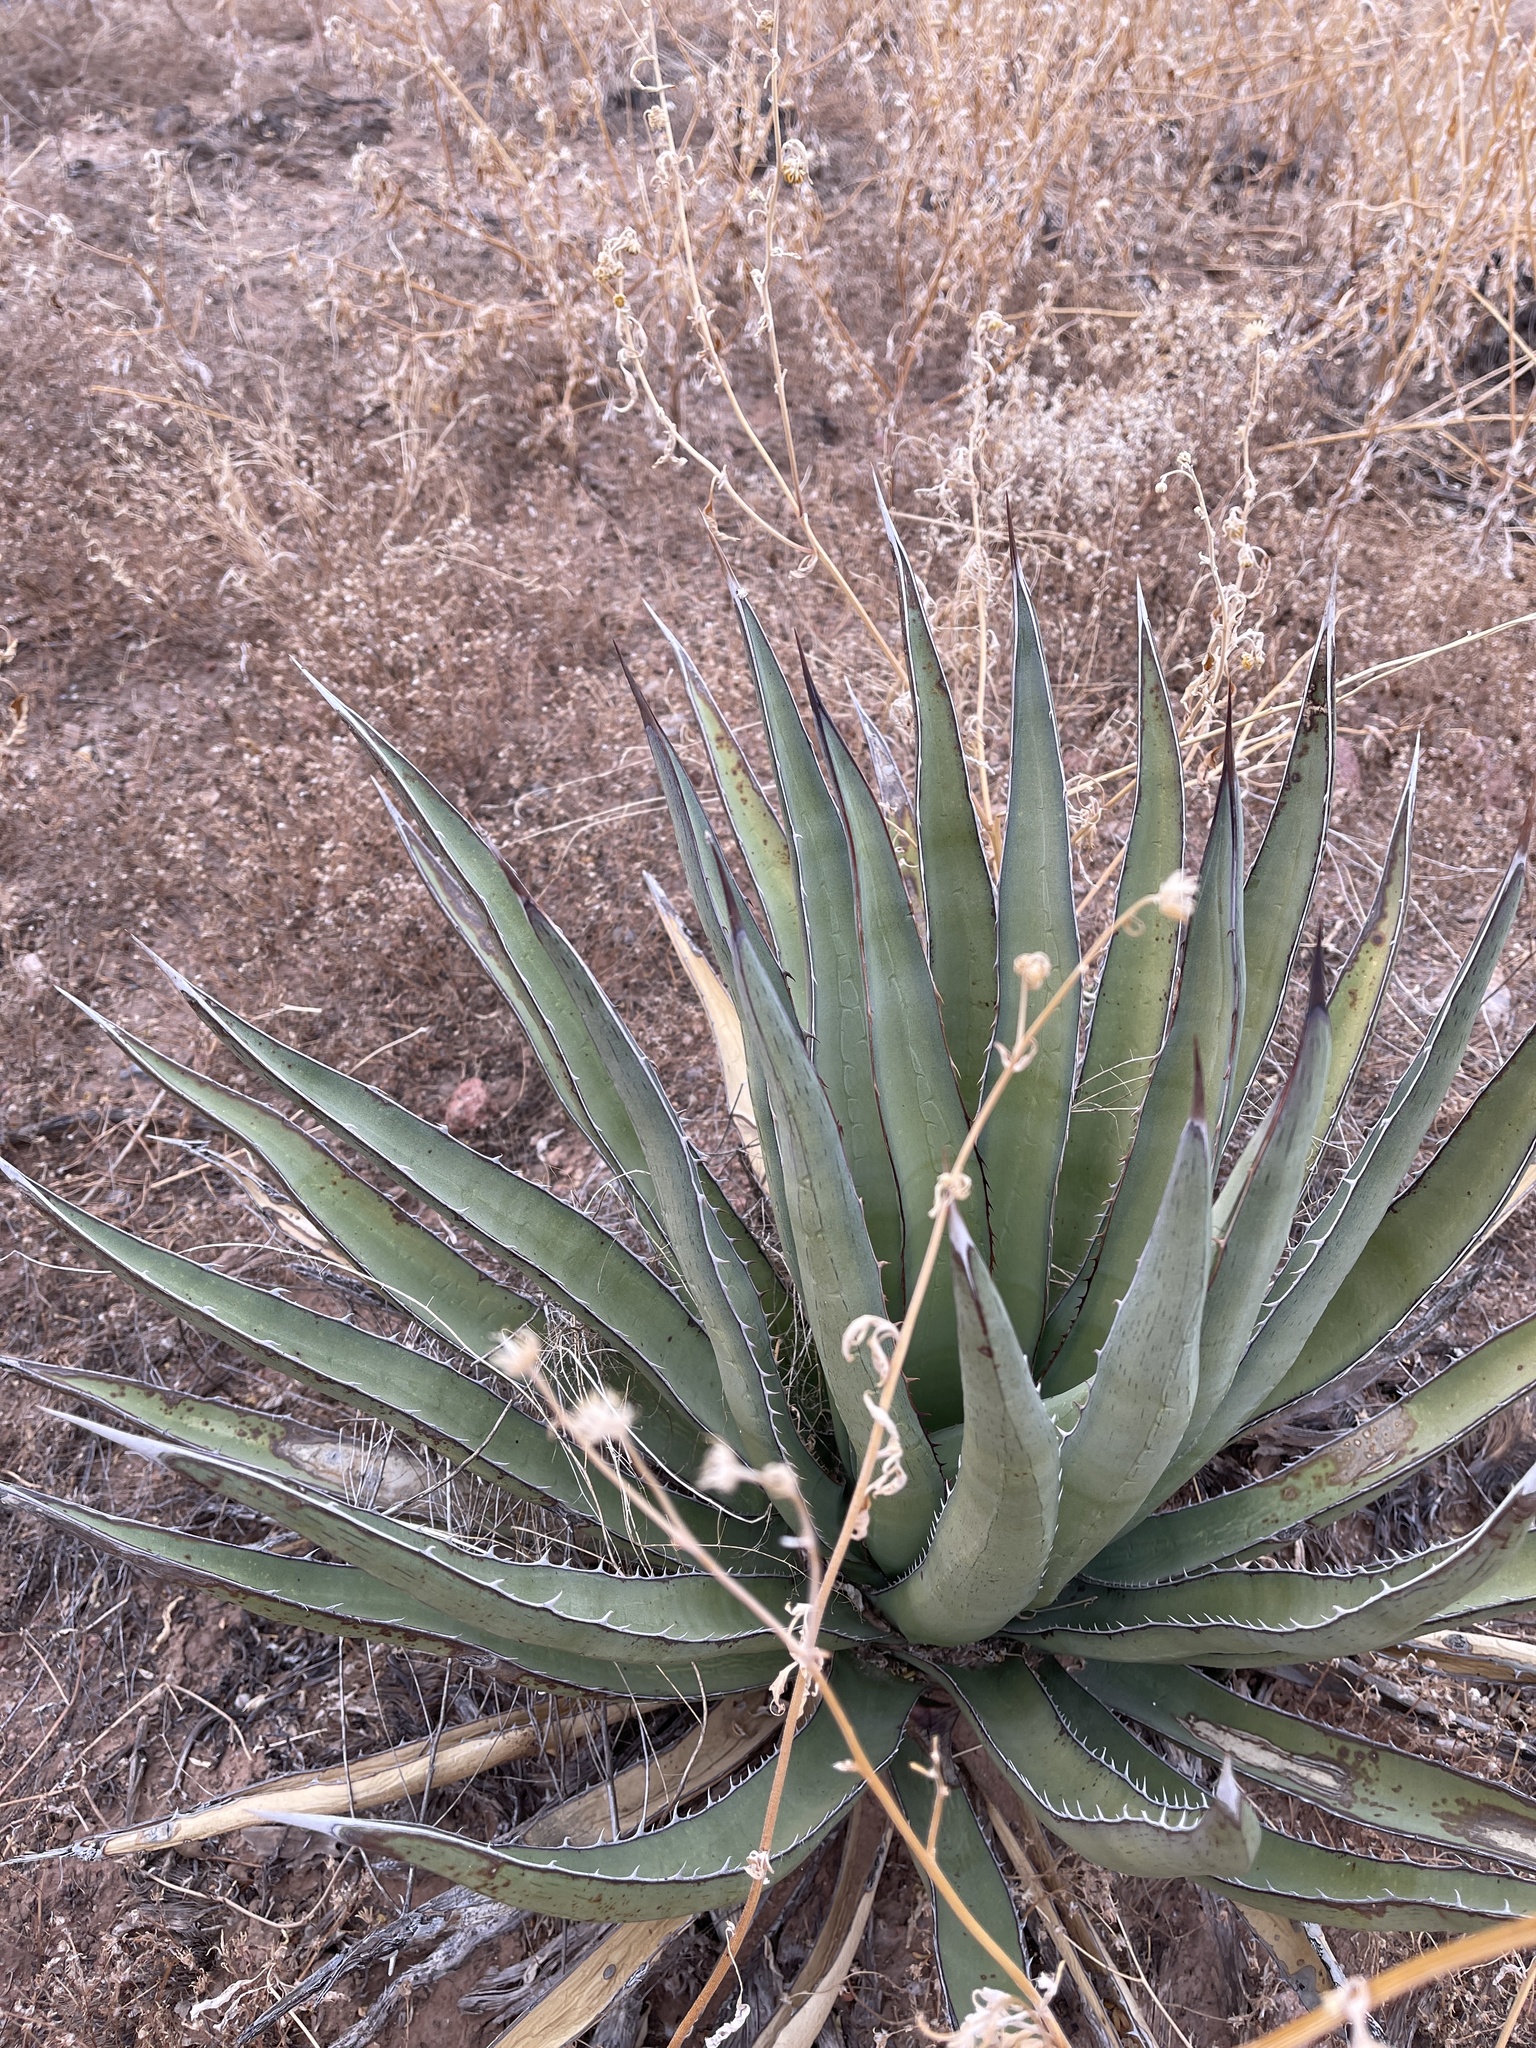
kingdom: Plantae
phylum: Tracheophyta
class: Liliopsida
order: Asparagales
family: Asparagaceae
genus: Agave
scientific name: Agave lechuguilla
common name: Lecheguilla agave
